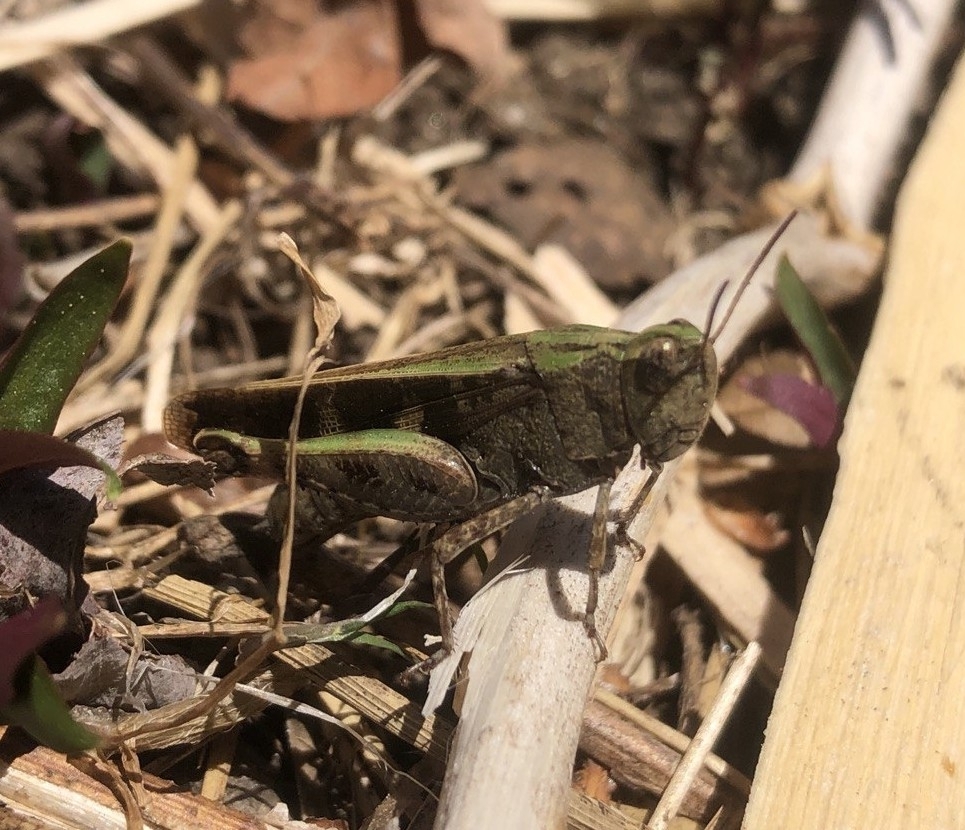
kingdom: Animalia
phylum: Arthropoda
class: Insecta
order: Orthoptera
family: Acrididae
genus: Aiolopus
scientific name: Aiolopus strepens
